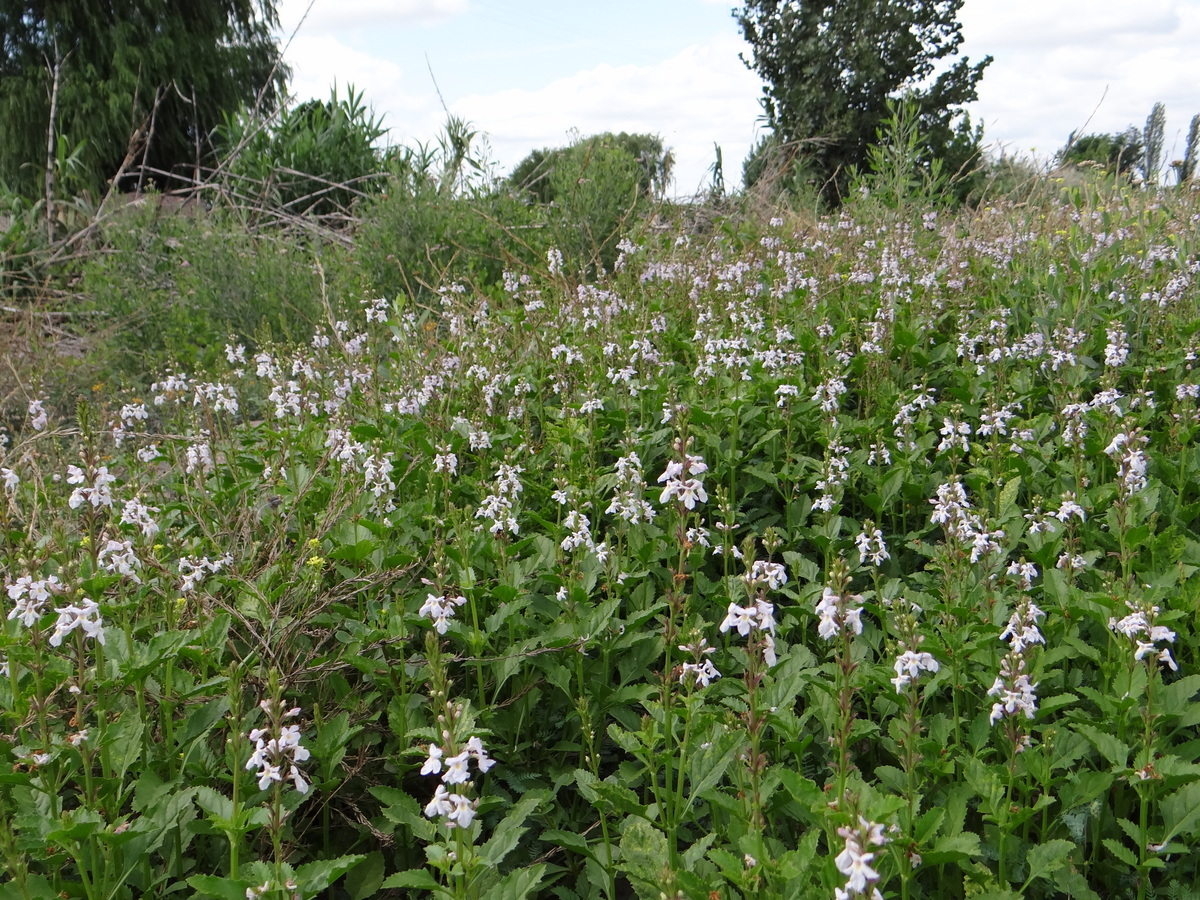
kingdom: Plantae
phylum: Tracheophyta
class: Magnoliopsida
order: Lamiales
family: Verbenaceae
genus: Pitraea
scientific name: Pitraea cuneato-ovata
